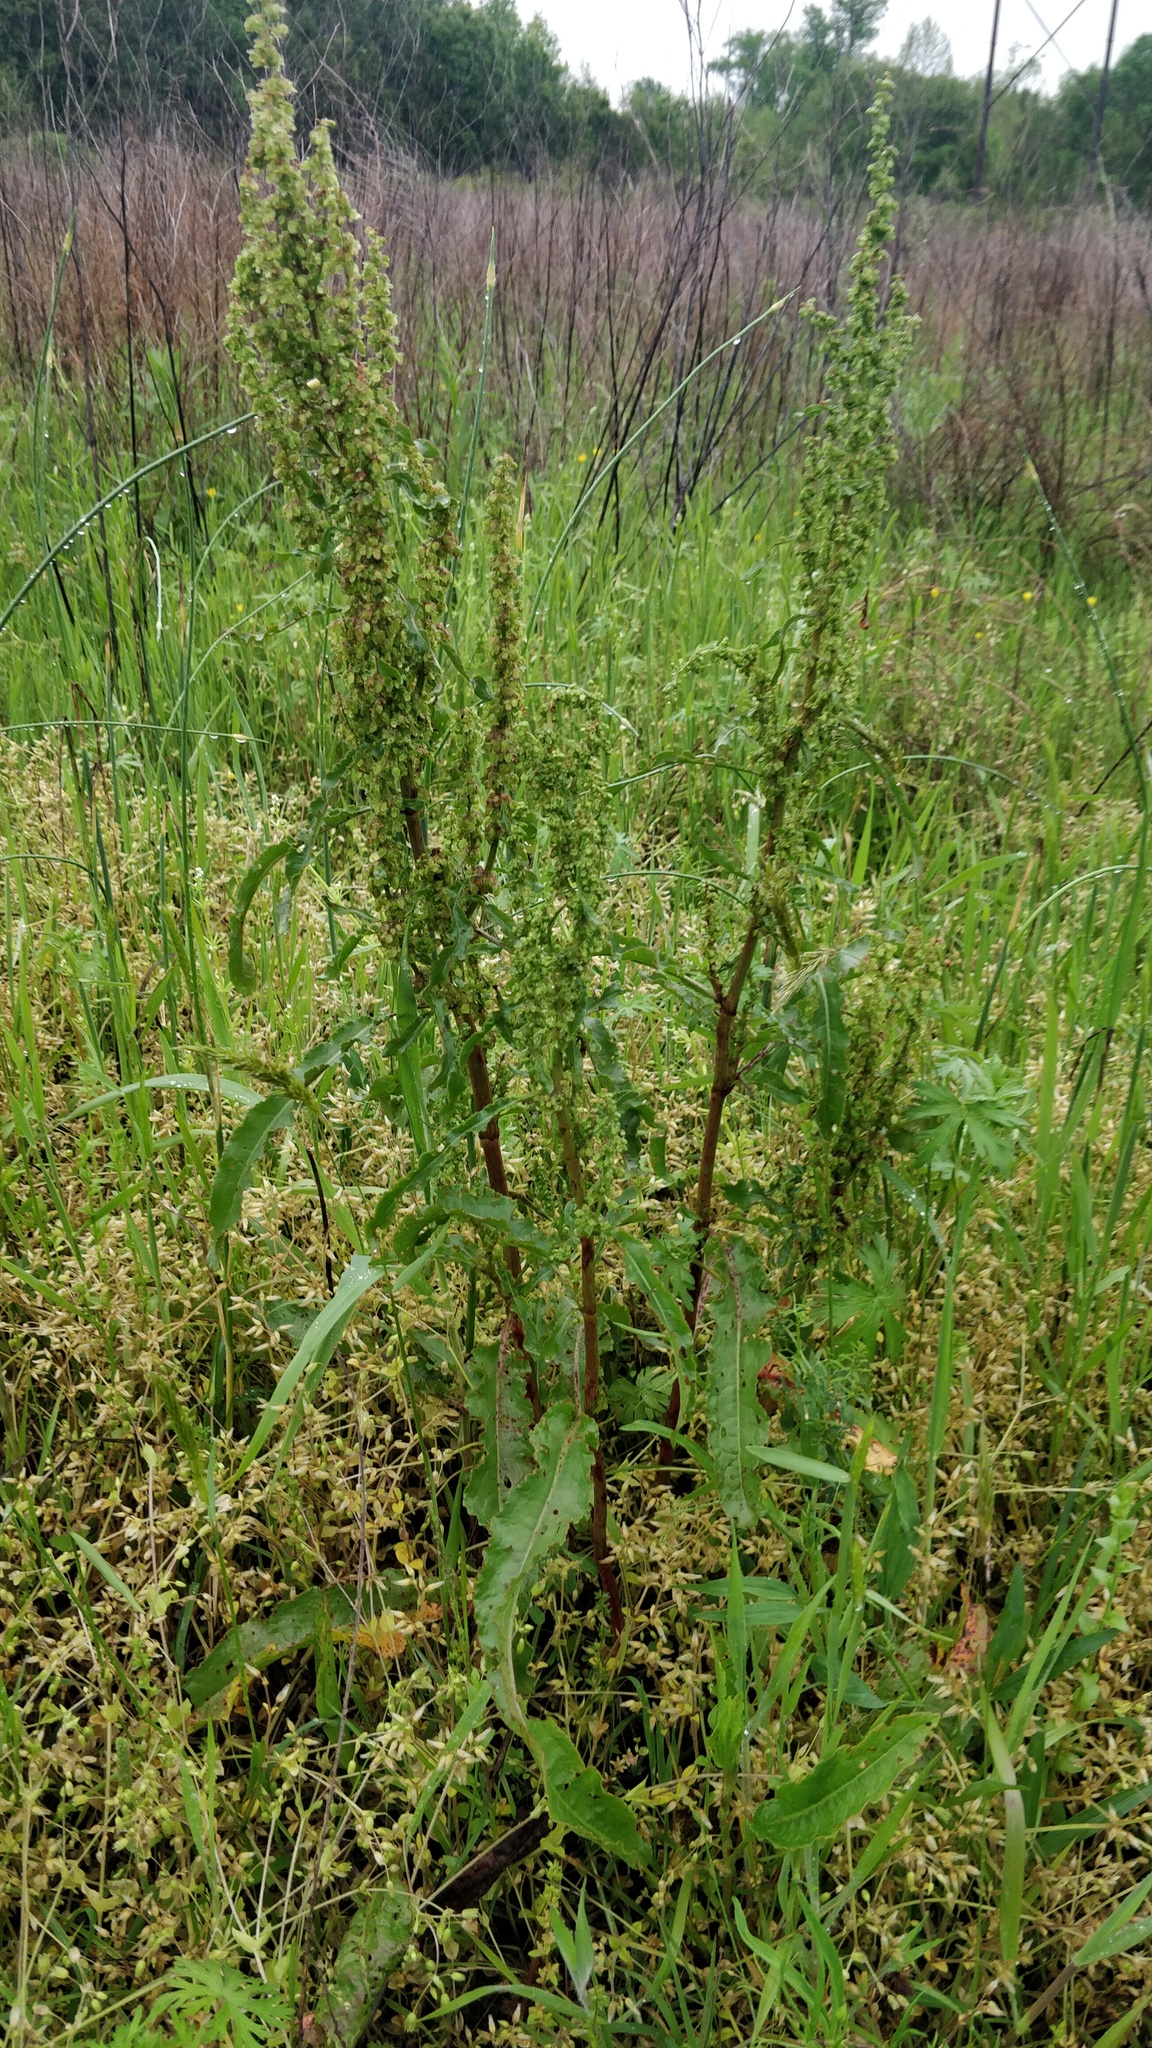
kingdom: Plantae
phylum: Tracheophyta
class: Magnoliopsida
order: Caryophyllales
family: Polygonaceae
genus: Rumex
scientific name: Rumex crispus
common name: Curled dock
